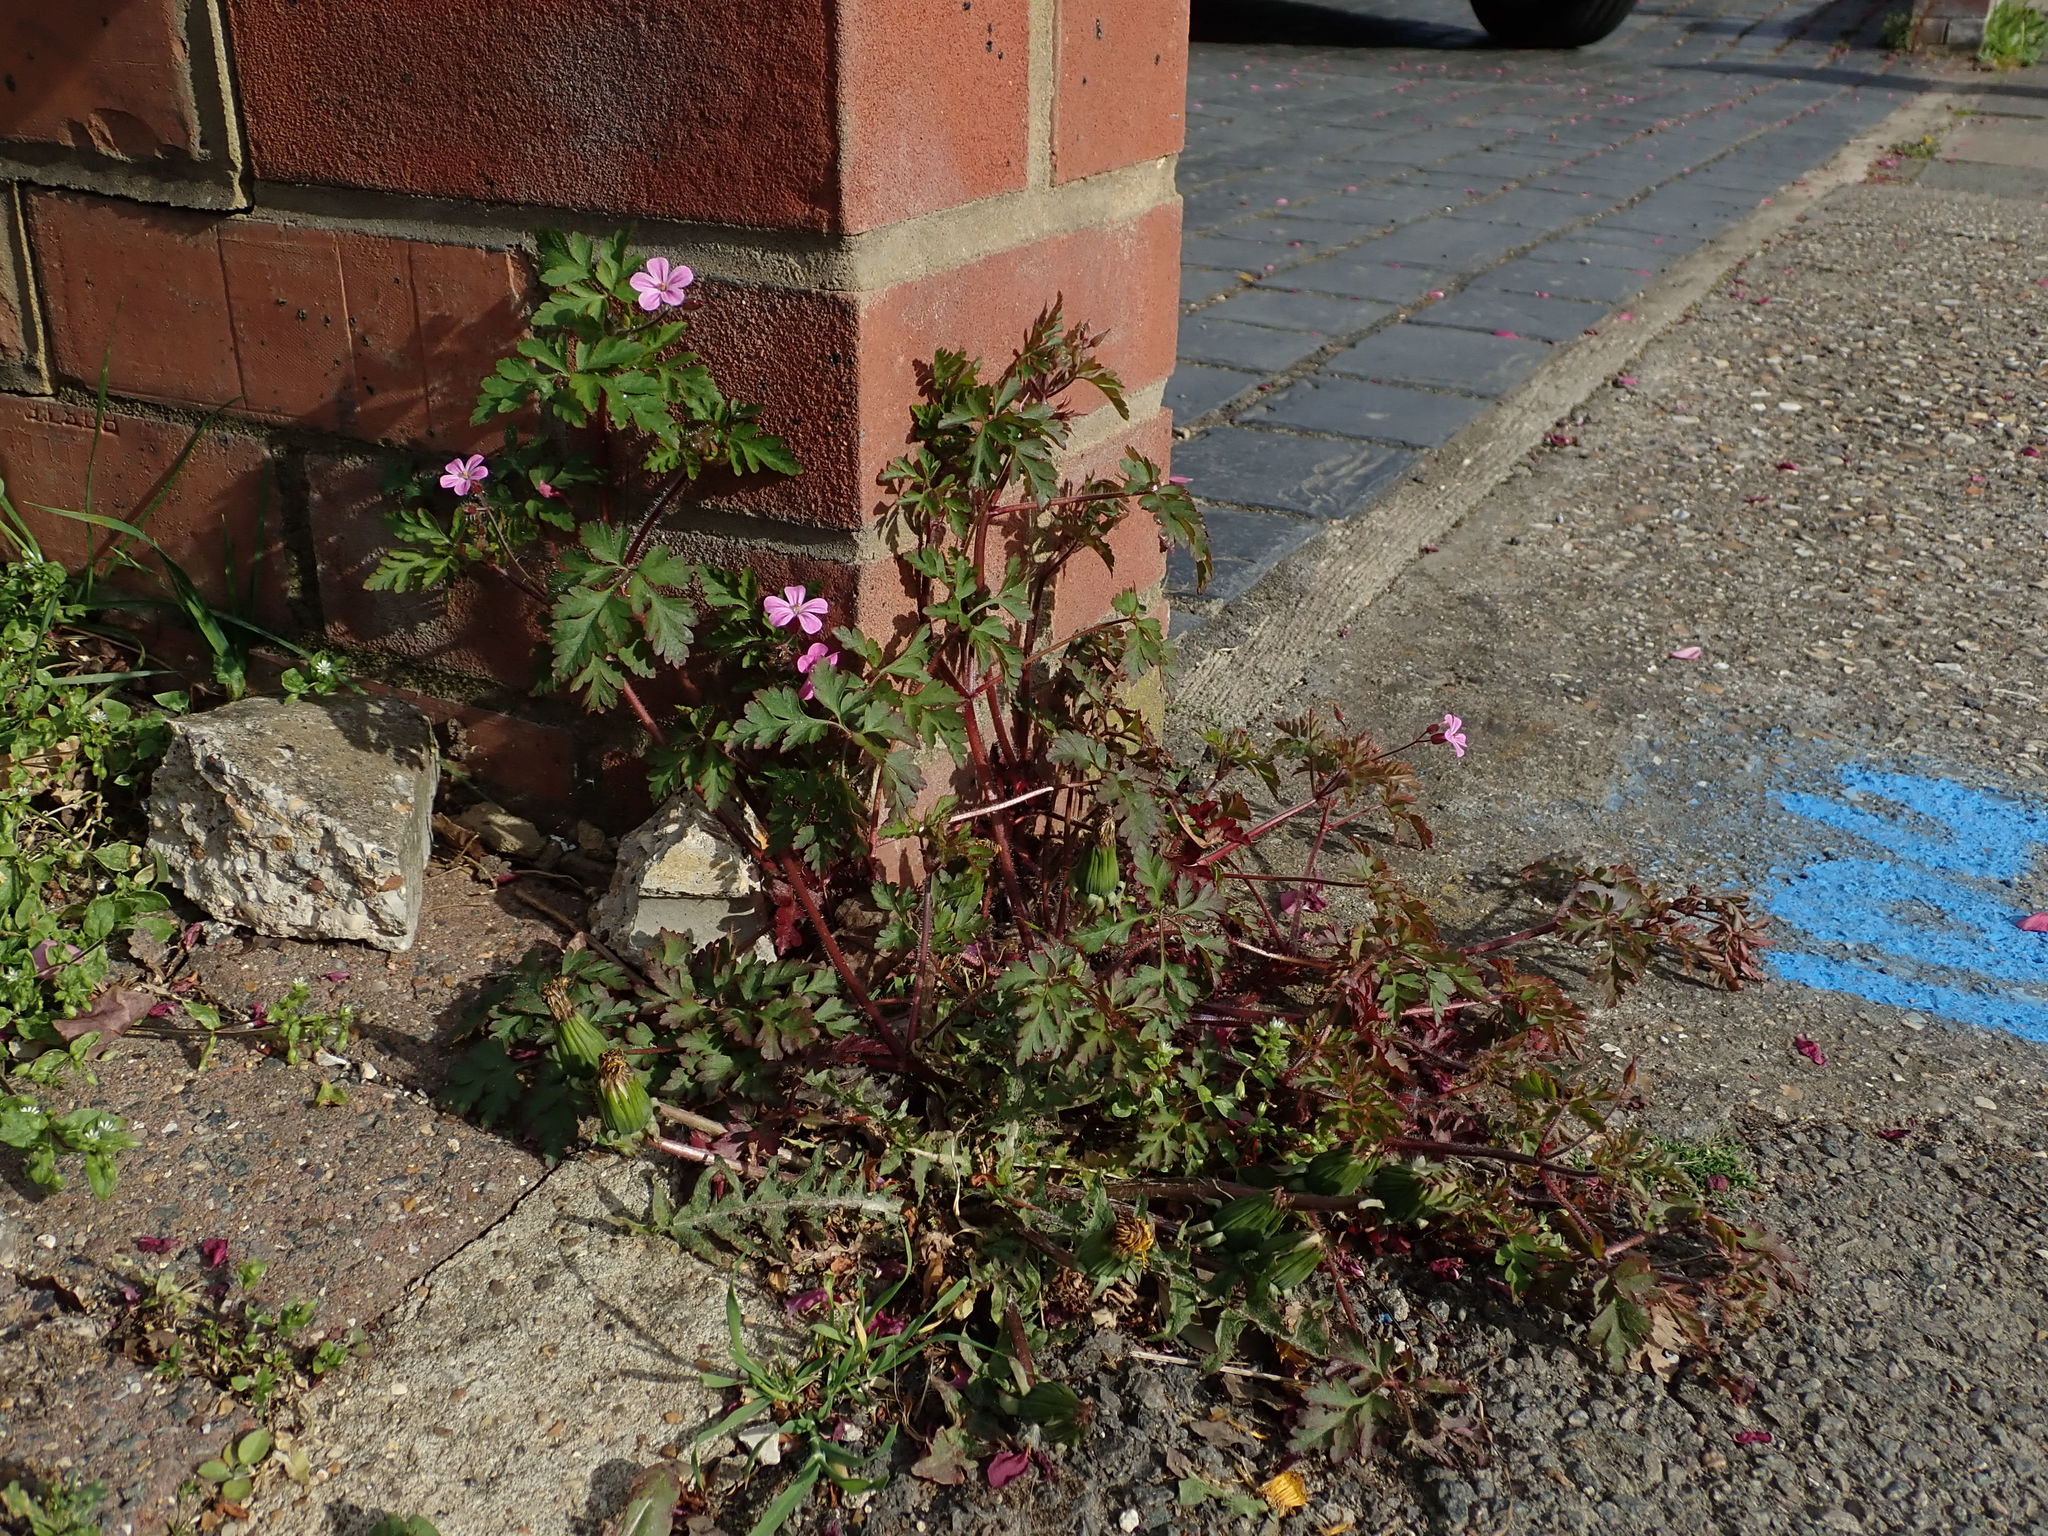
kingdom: Plantae
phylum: Tracheophyta
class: Magnoliopsida
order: Geraniales
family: Geraniaceae
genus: Geranium
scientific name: Geranium robertianum
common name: Herb-robert
